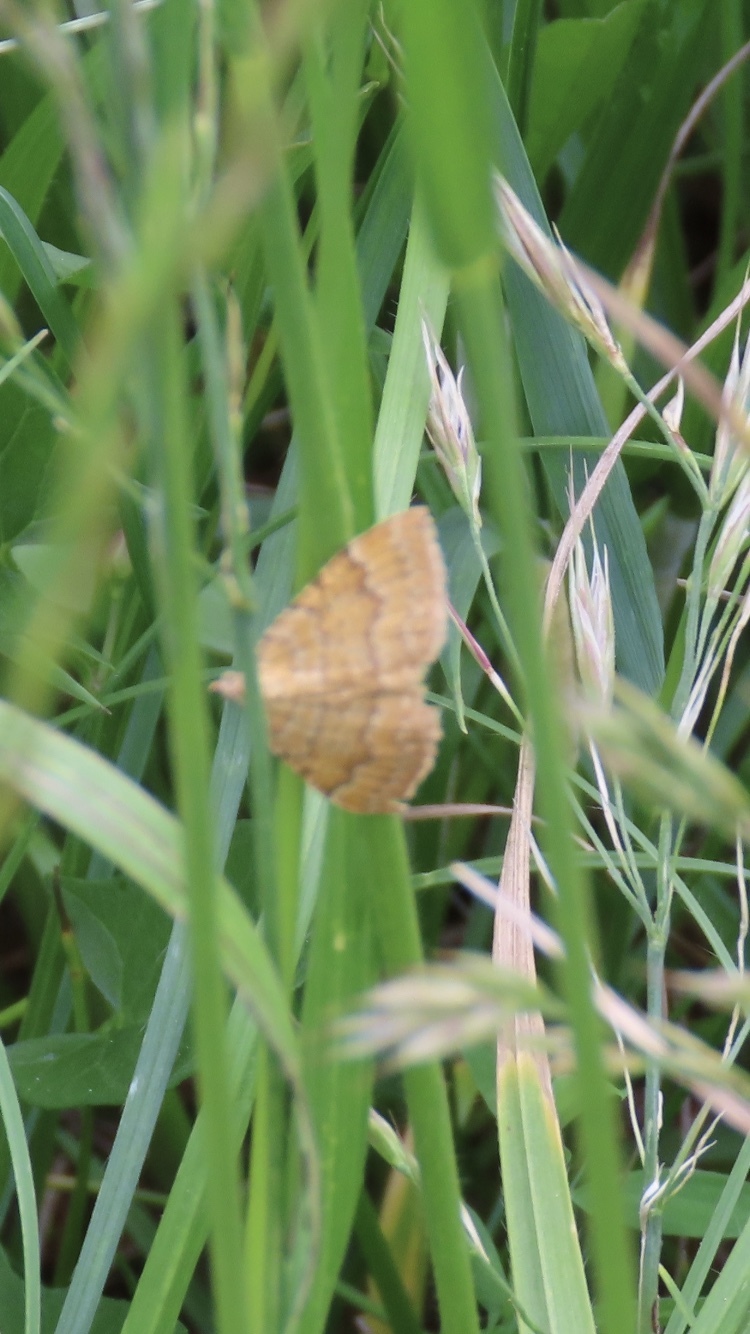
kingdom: Animalia
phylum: Arthropoda
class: Insecta
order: Lepidoptera
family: Geometridae
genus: Camptogramma
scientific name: Camptogramma bilineata
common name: Yellow shell
